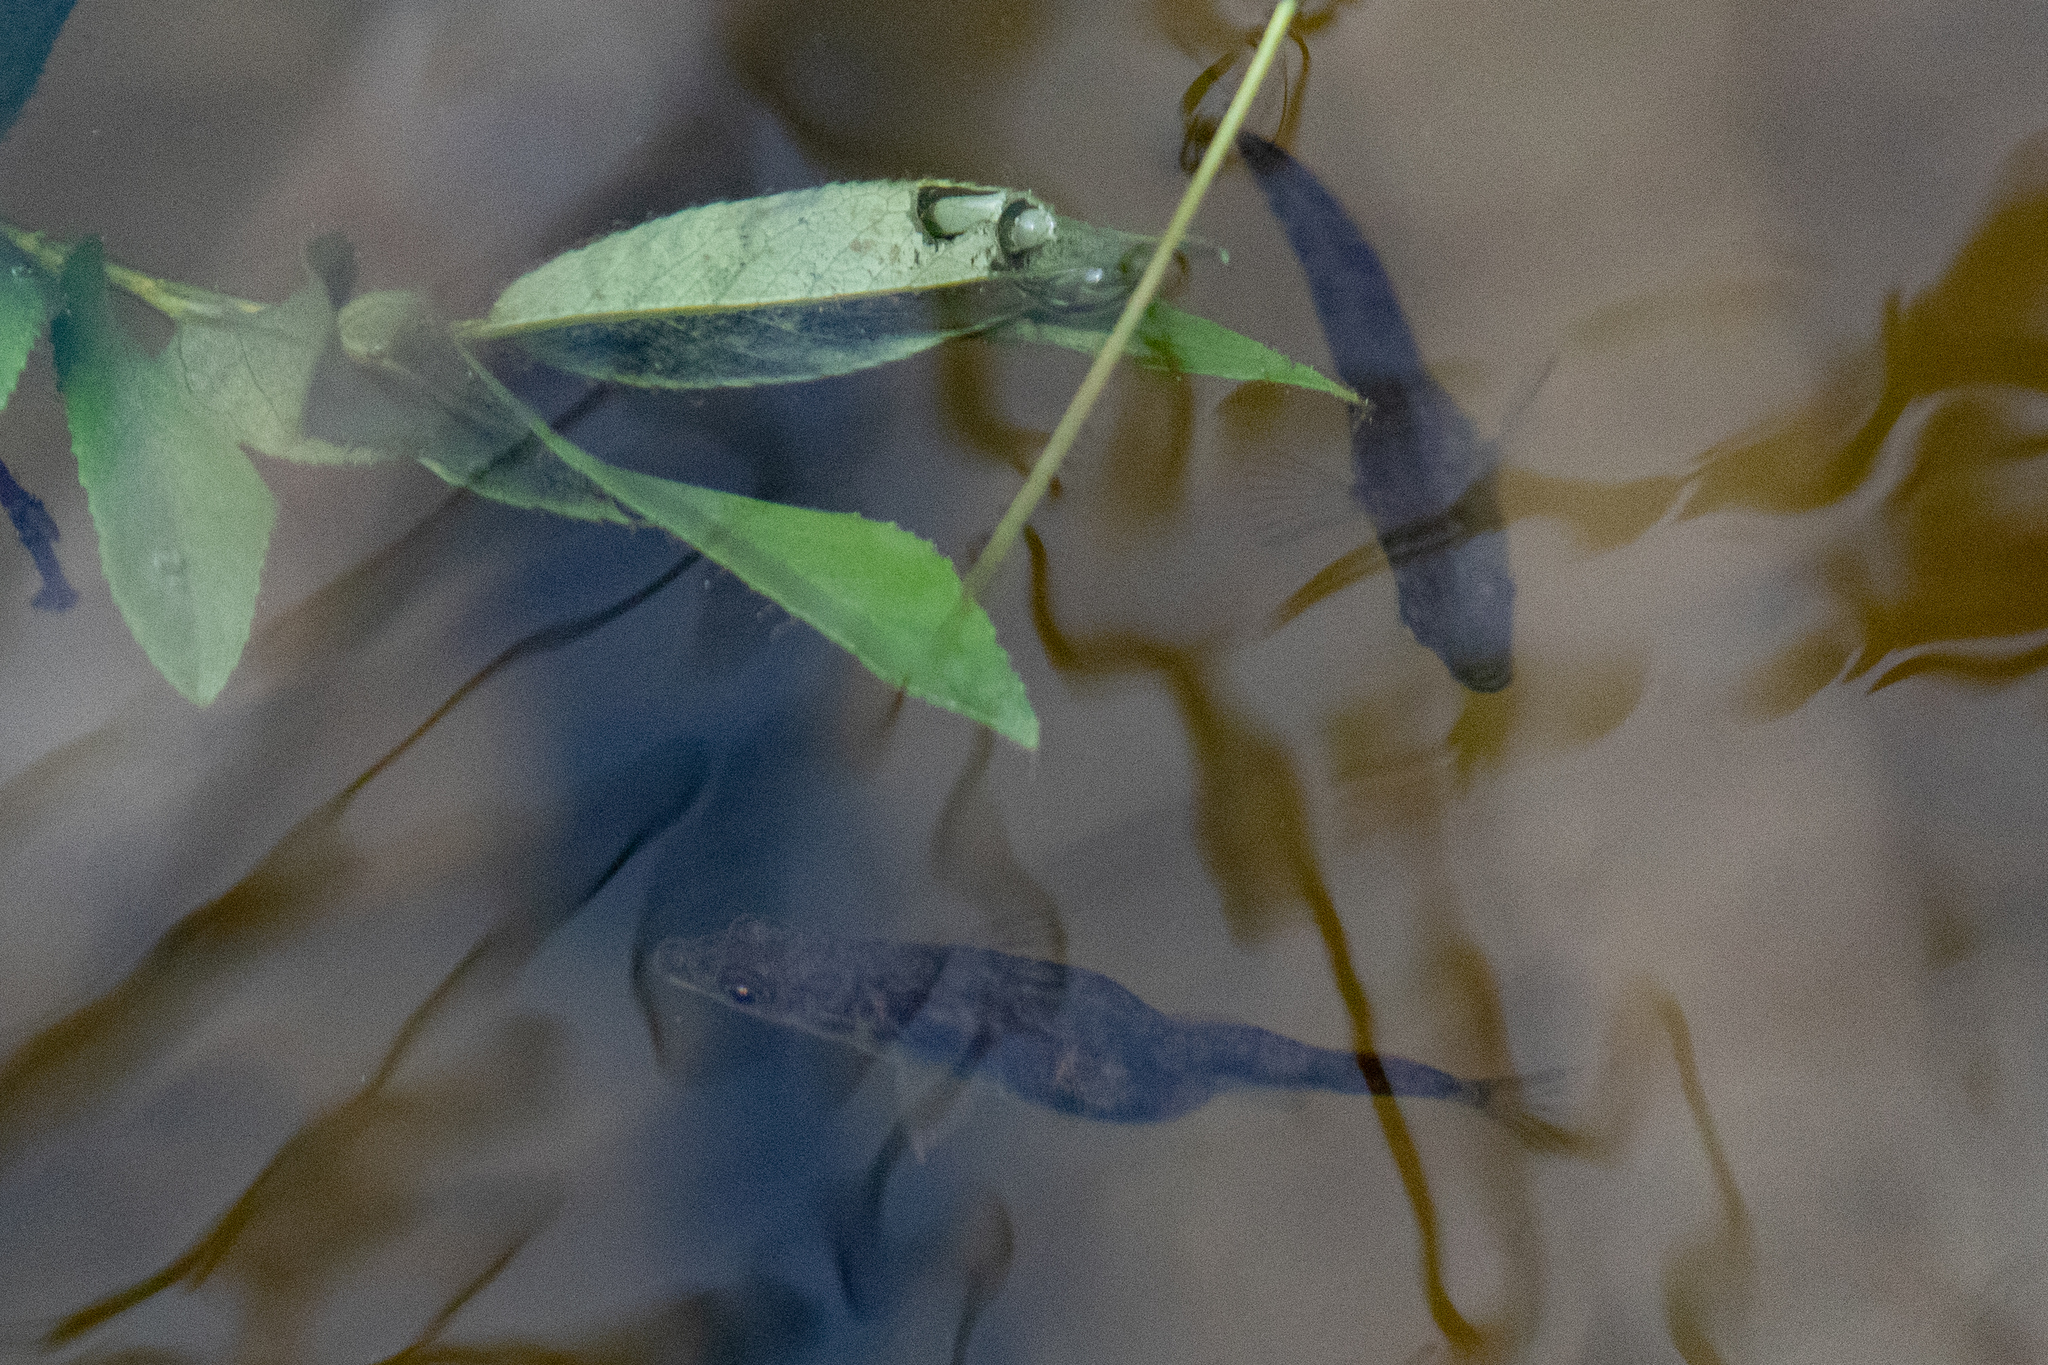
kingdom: Animalia
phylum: Chordata
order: Gasterosteiformes
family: Gasterosteidae
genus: Gasterosteus
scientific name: Gasterosteus aculeatus
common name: Three-spined stickleback
